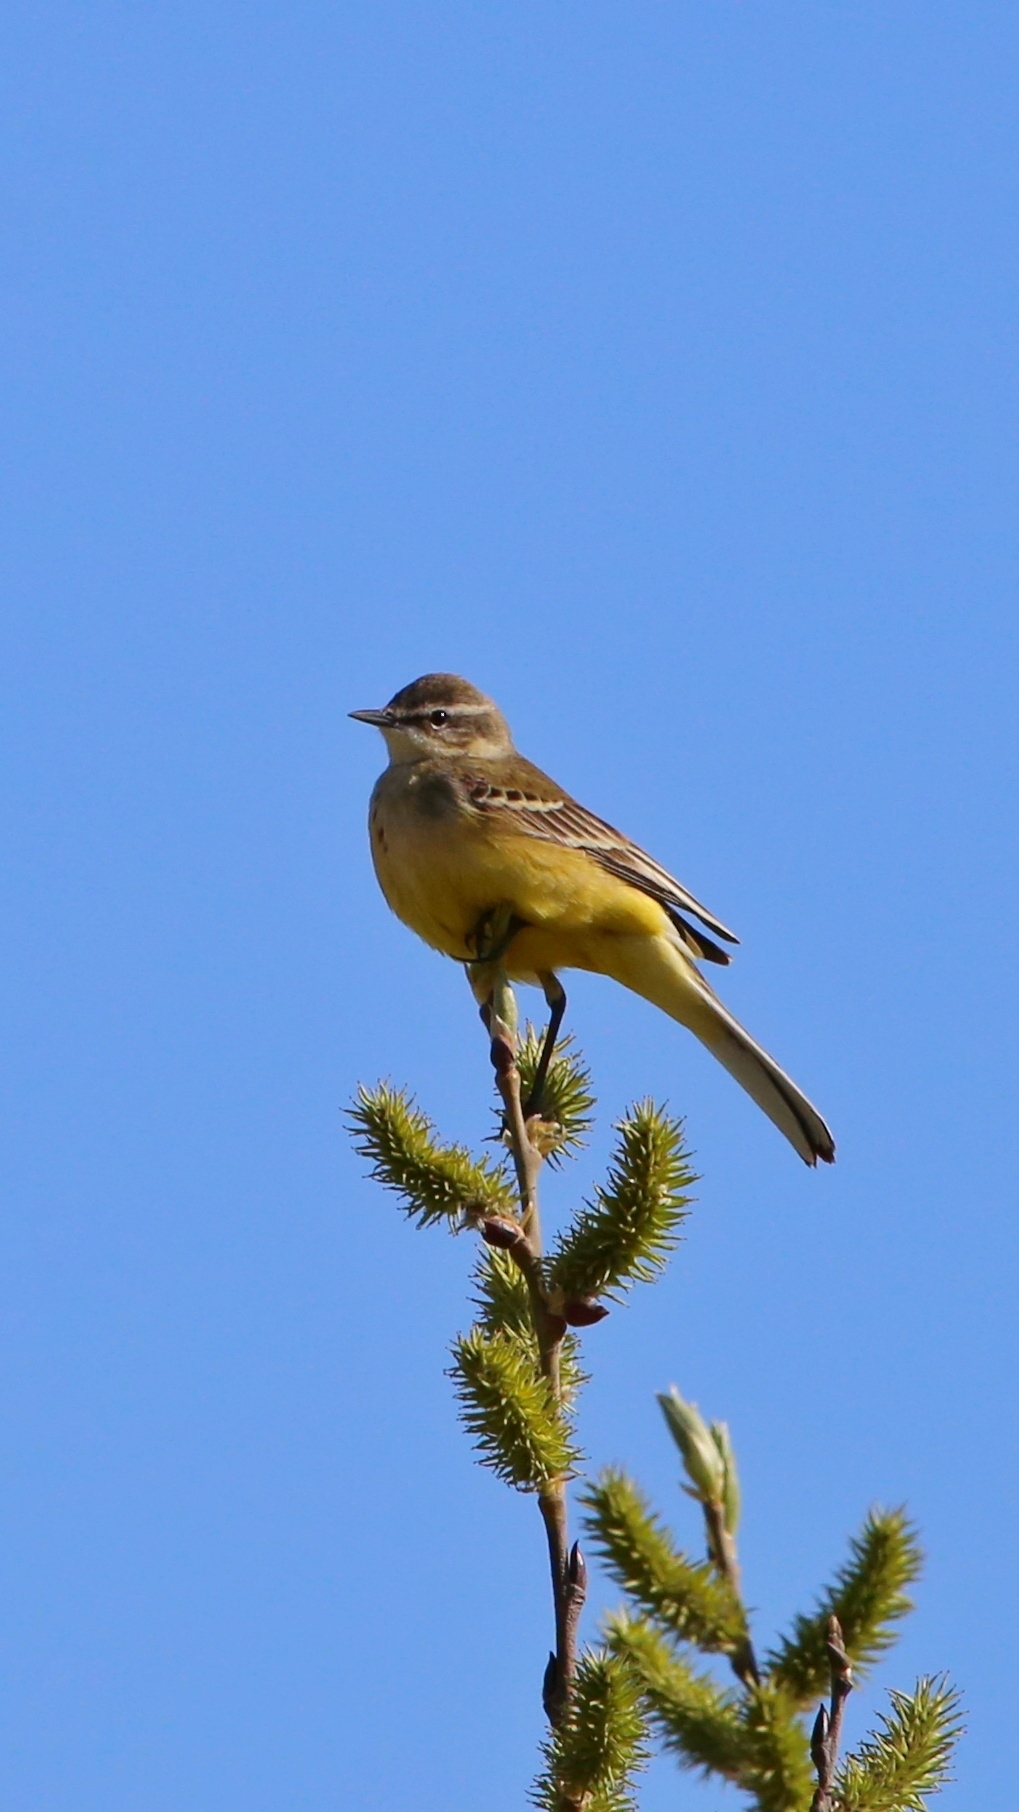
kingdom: Animalia
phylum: Chordata
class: Aves
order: Passeriformes
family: Motacillidae
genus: Motacilla
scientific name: Motacilla flava
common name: Western yellow wagtail
